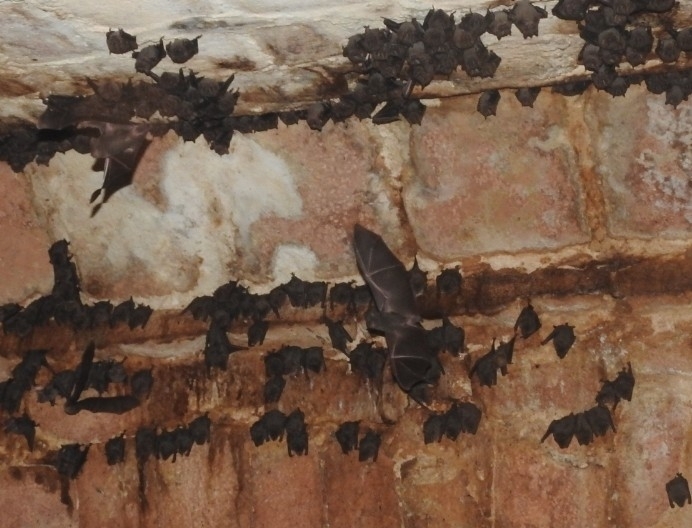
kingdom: Animalia
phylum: Chordata
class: Mammalia
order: Chiroptera
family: Phyllostomidae
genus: Artibeus
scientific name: Artibeus jamaicensis
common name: Jamaican fruit-eating bat
